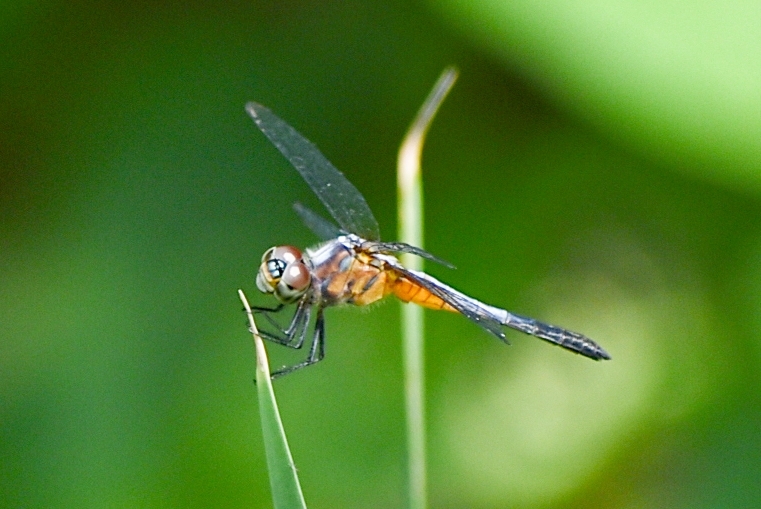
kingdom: Animalia
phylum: Arthropoda
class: Insecta
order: Odonata
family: Libellulidae
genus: Brachydiplax
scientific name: Brachydiplax chalybea
